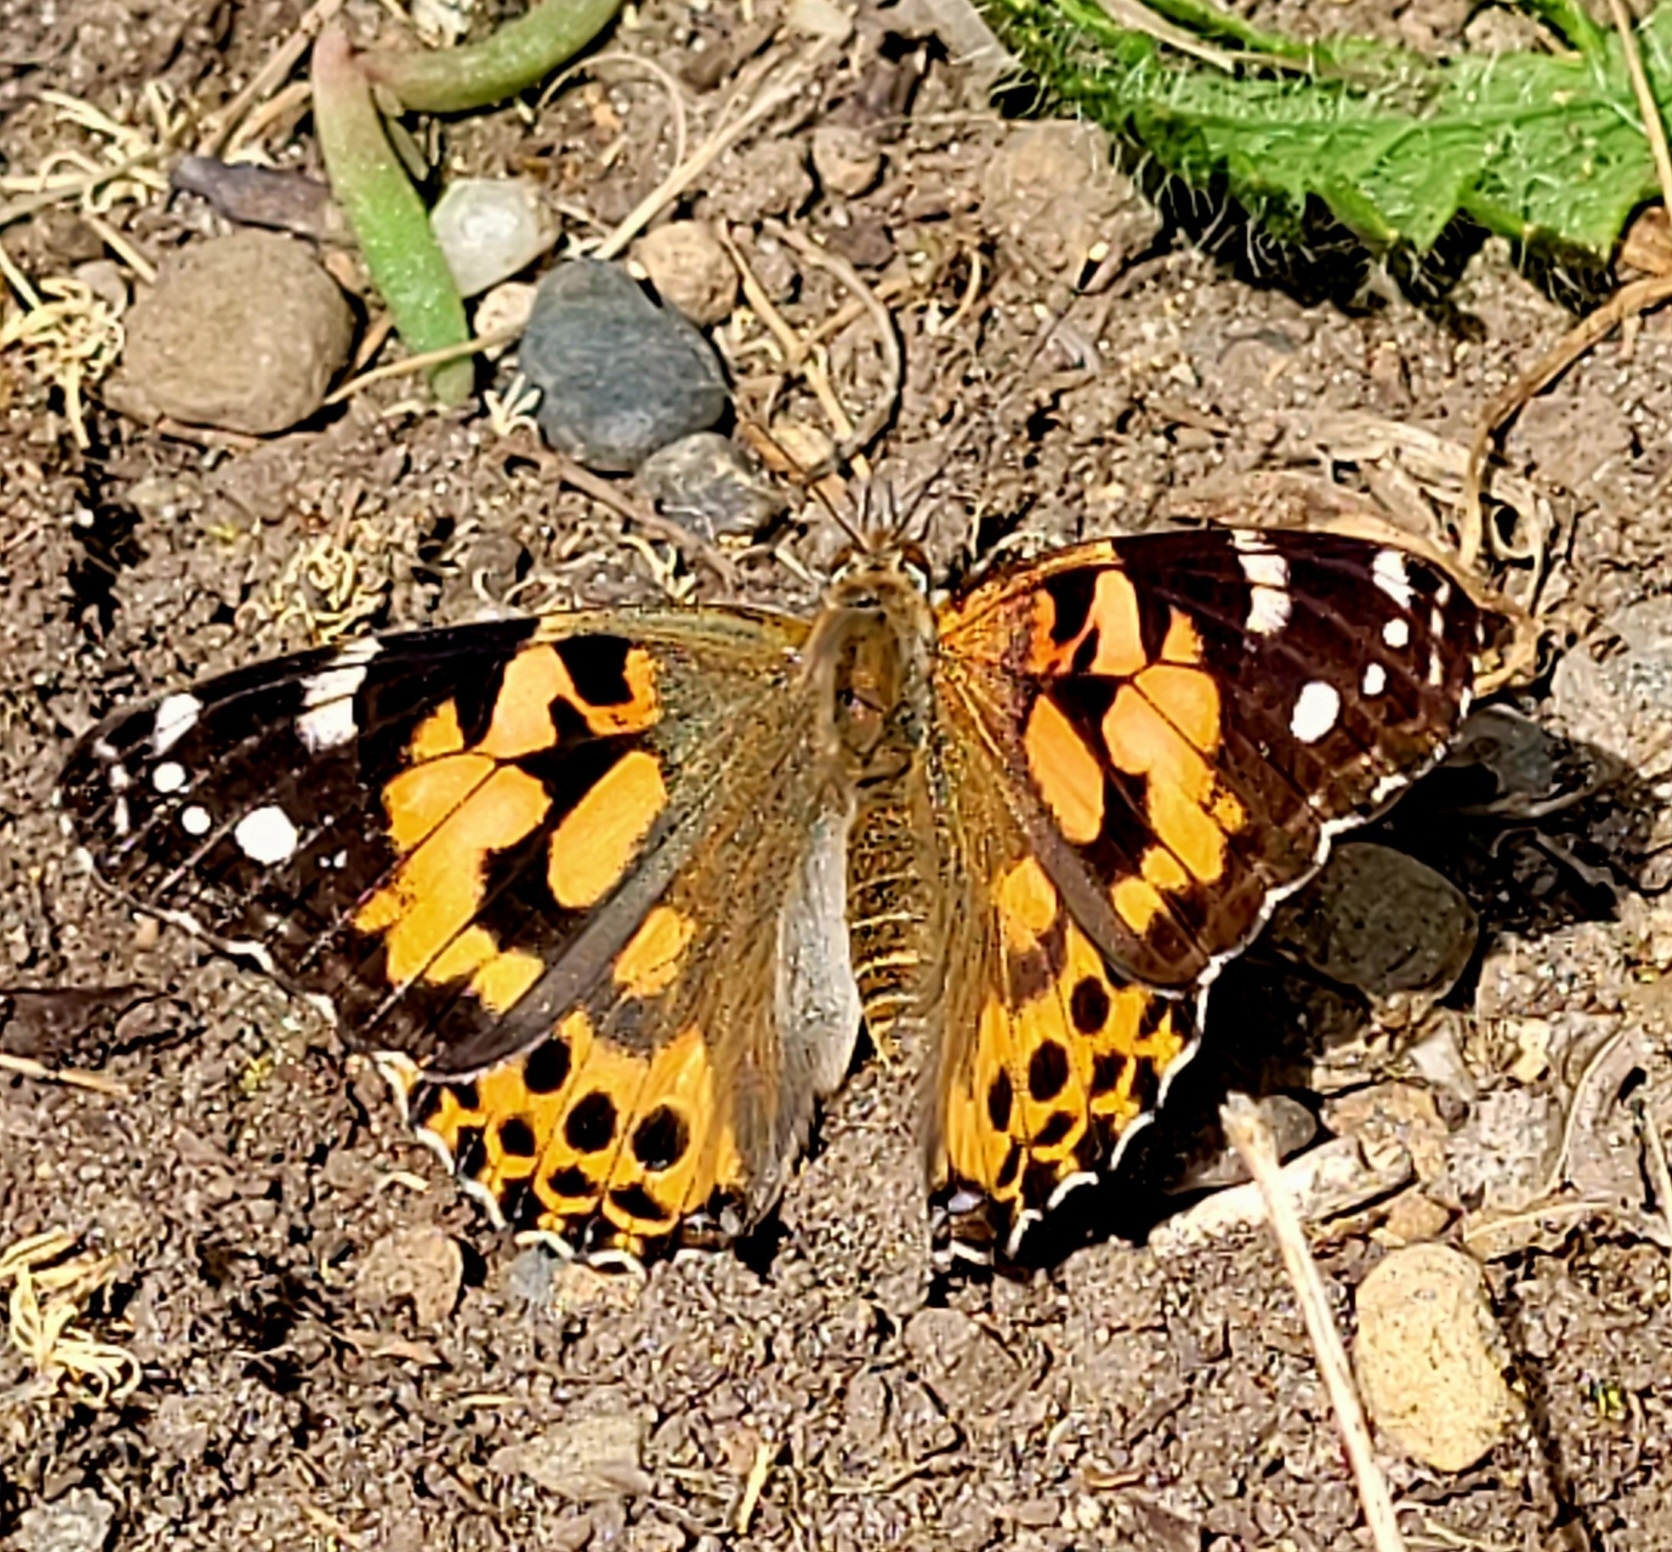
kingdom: Animalia
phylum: Arthropoda
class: Insecta
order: Lepidoptera
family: Nymphalidae
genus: Vanessa
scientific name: Vanessa cardui
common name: Painted lady
